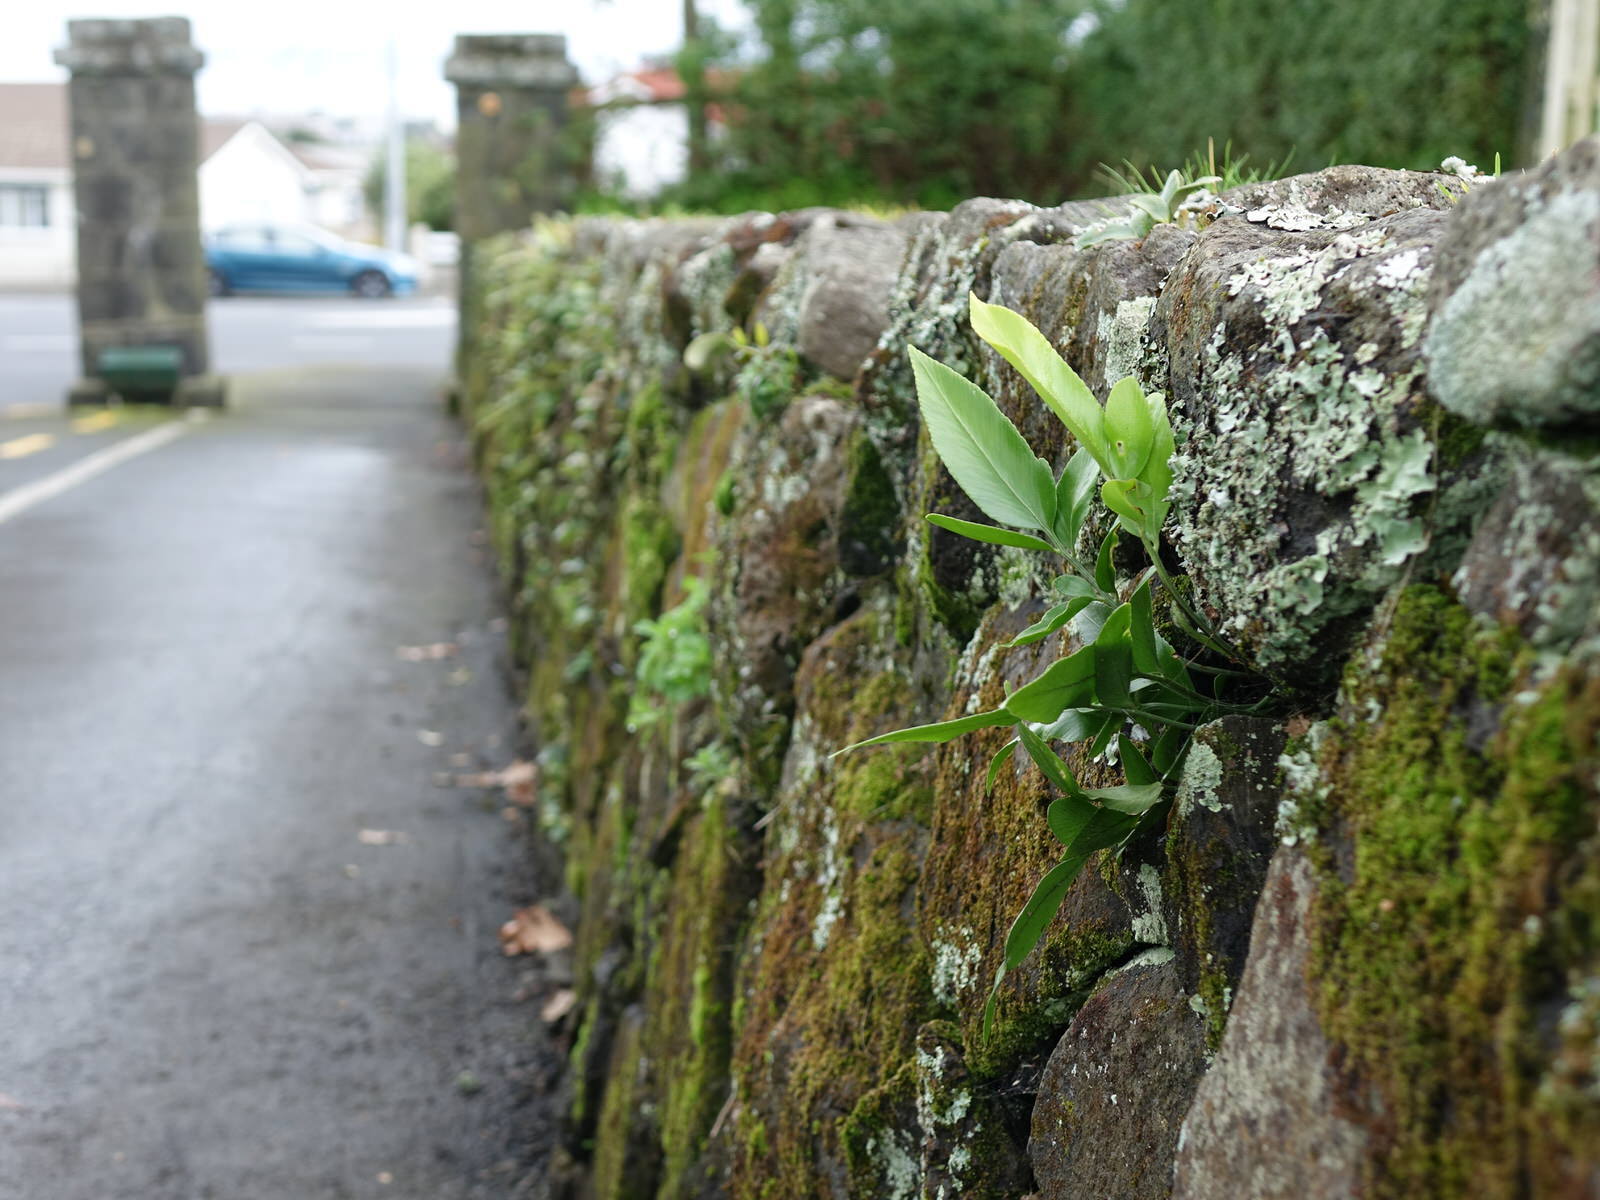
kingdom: Plantae
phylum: Tracheophyta
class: Polypodiopsida
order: Polypodiales
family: Aspleniaceae
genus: Asplenium
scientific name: Asplenium oblongifolium
